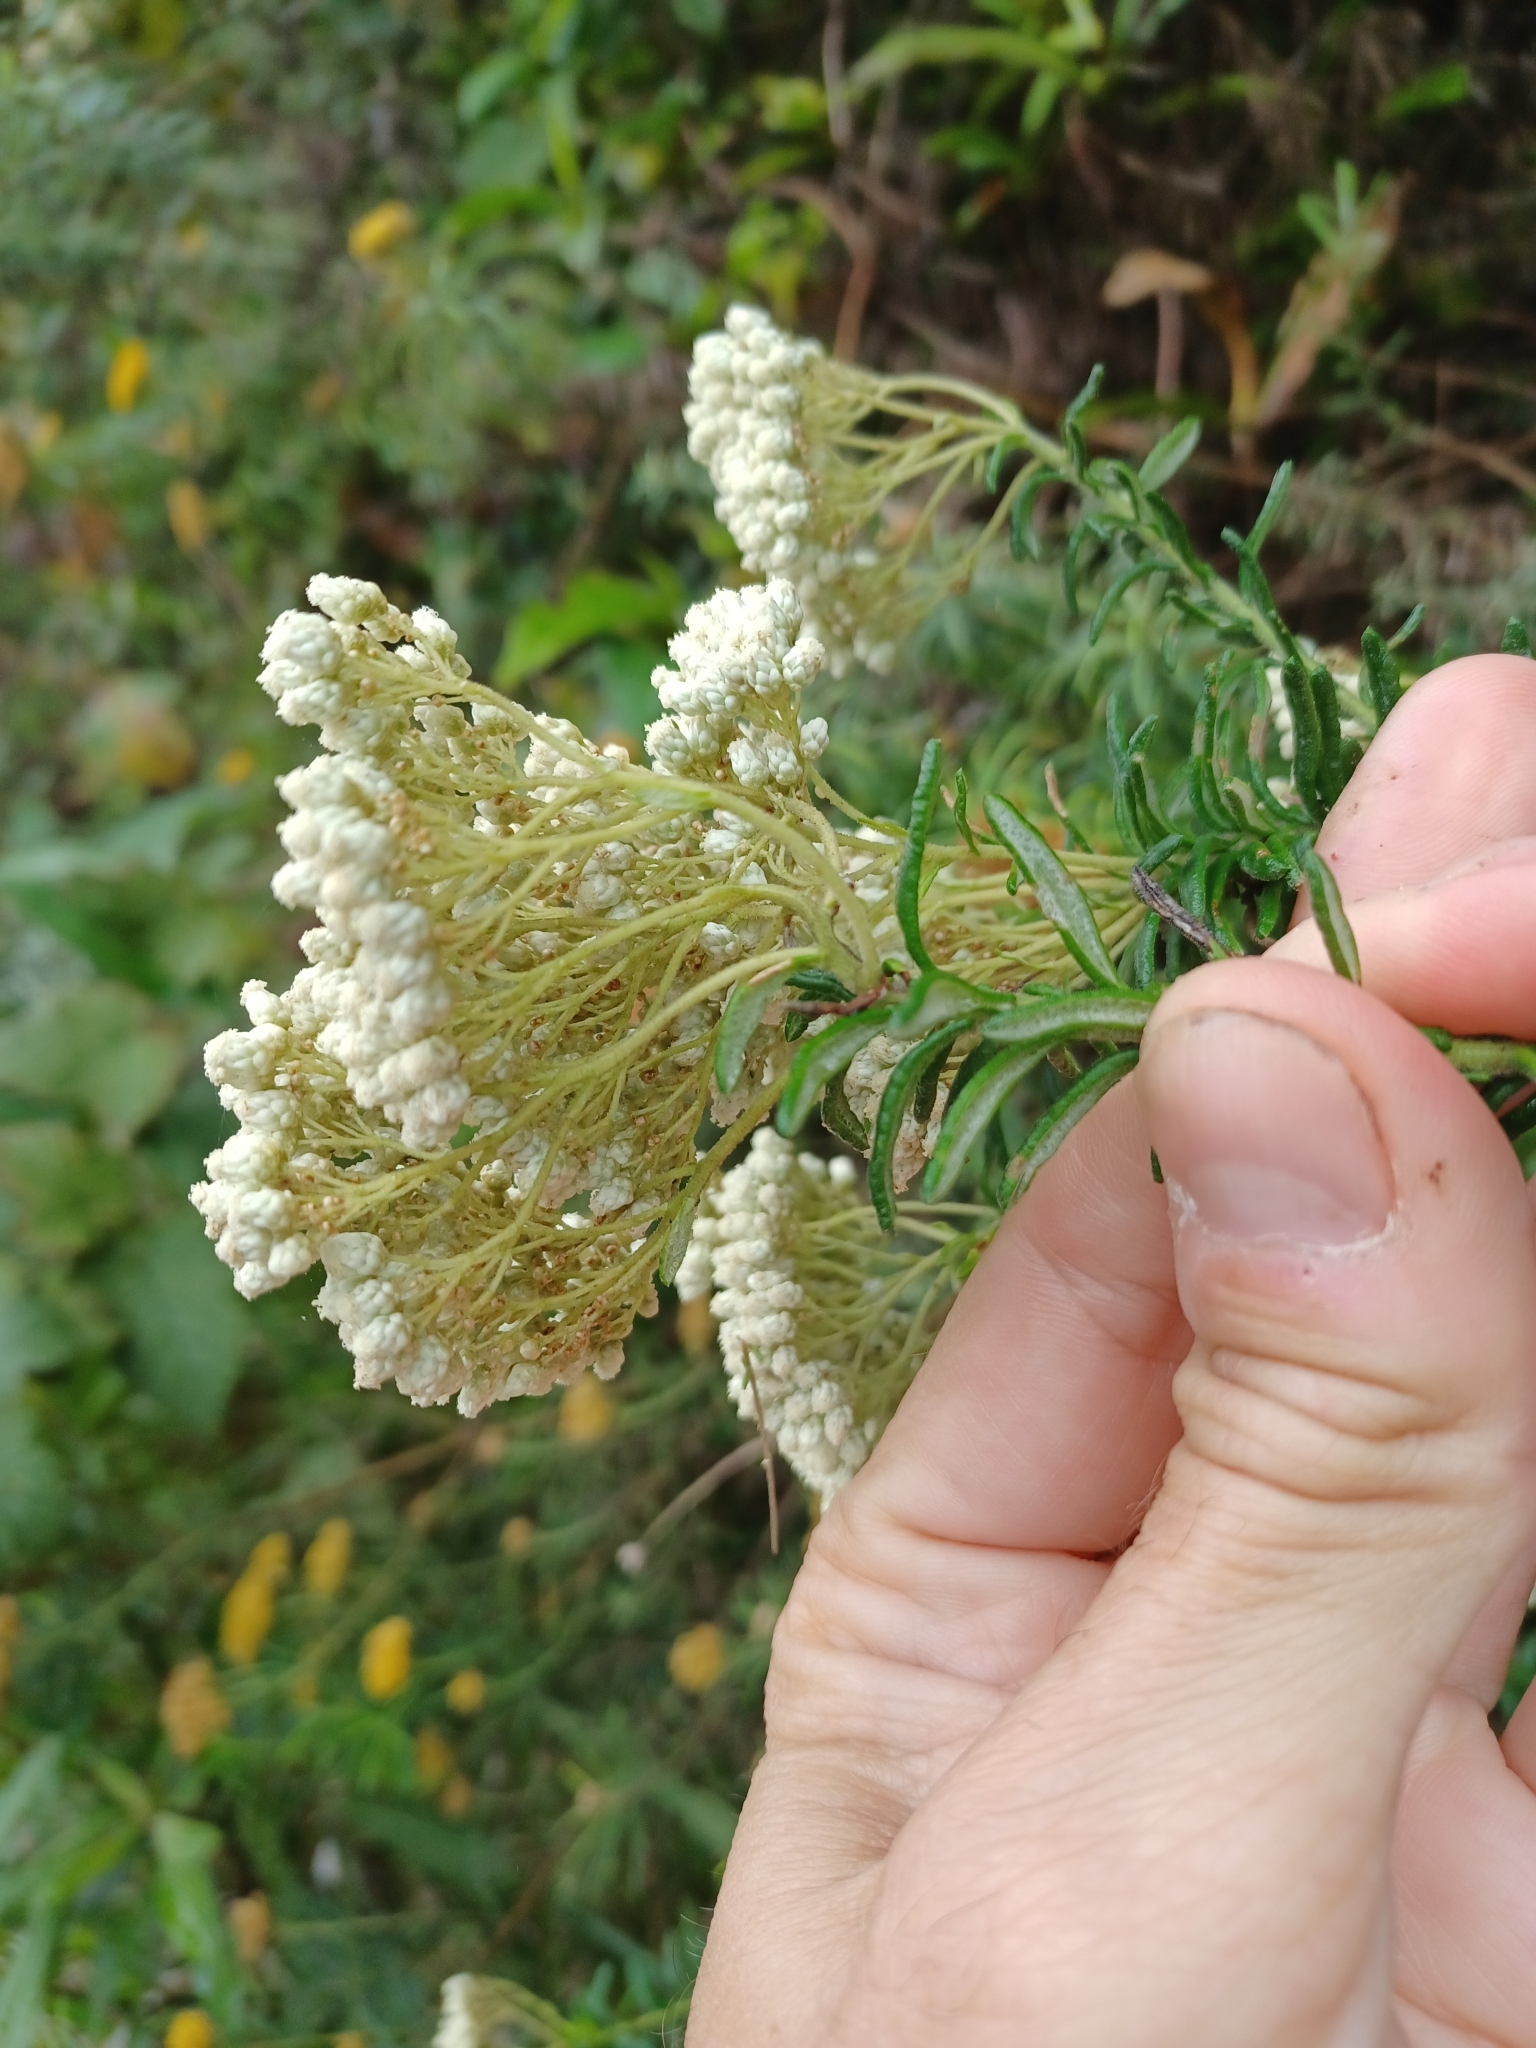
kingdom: Plantae
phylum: Tracheophyta
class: Magnoliopsida
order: Asterales
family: Asteraceae
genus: Ozothamnus
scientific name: Ozothamnus diosmifolius
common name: White-dogwood
